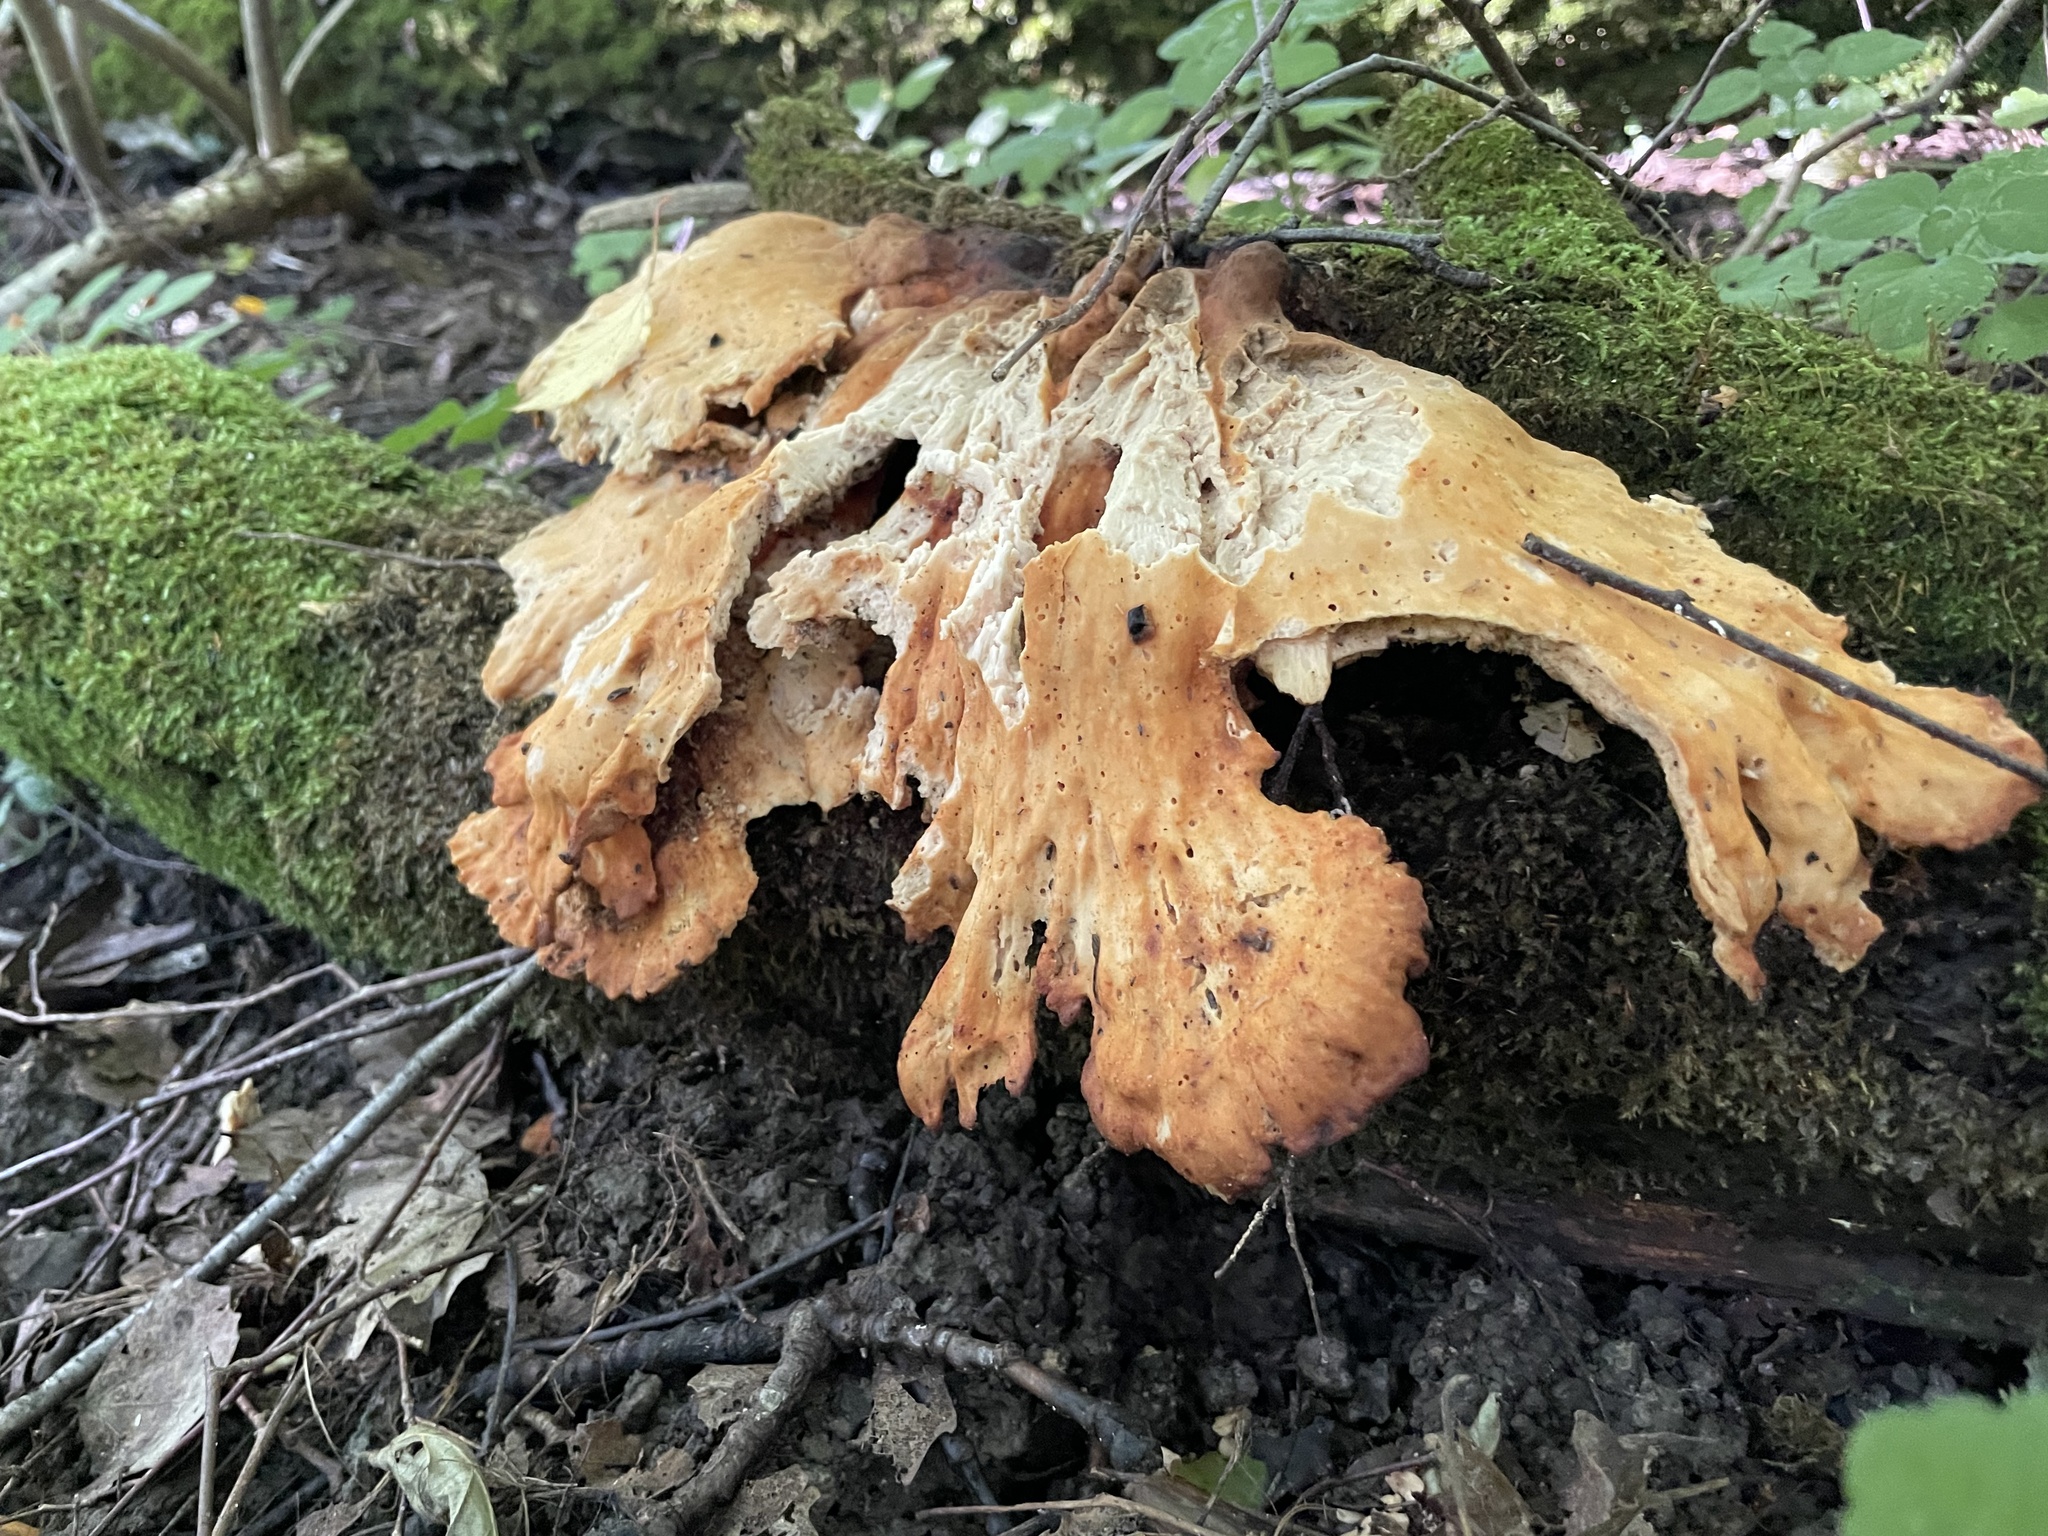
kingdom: Fungi
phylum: Basidiomycota
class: Agaricomycetes
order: Polyporales
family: Laetiporaceae
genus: Laetiporus
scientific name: Laetiporus sulphureus
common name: Chicken of the woods
